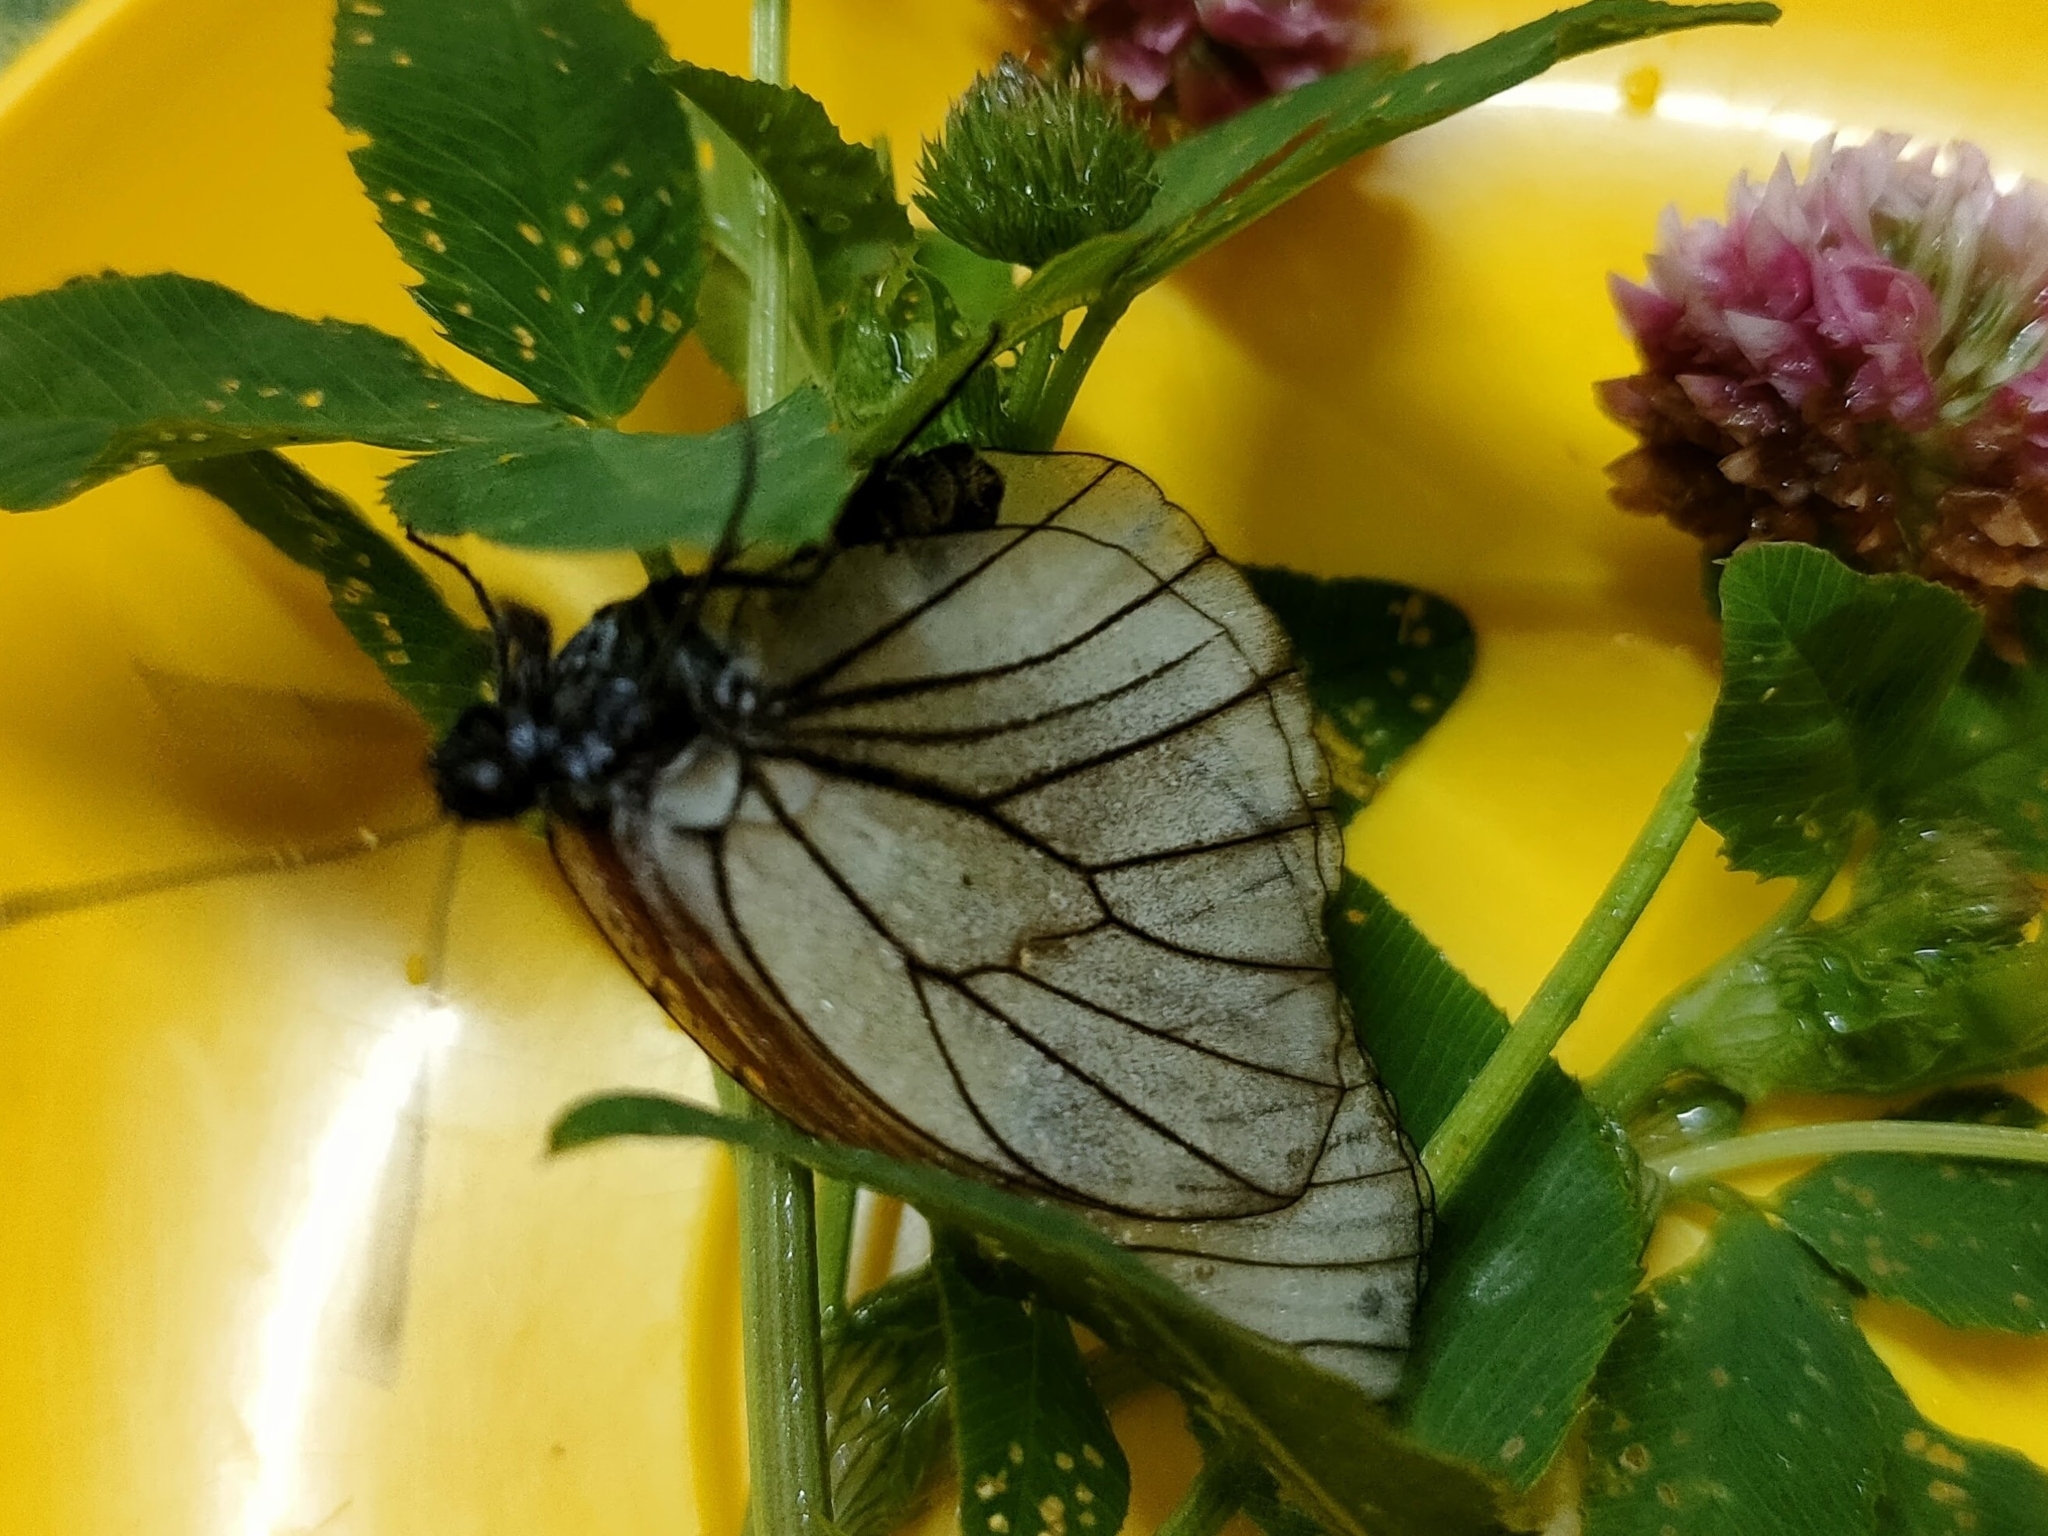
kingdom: Animalia
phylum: Arthropoda
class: Insecta
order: Lepidoptera
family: Pieridae
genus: Aporia
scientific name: Aporia crataegi
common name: Black-veined white
